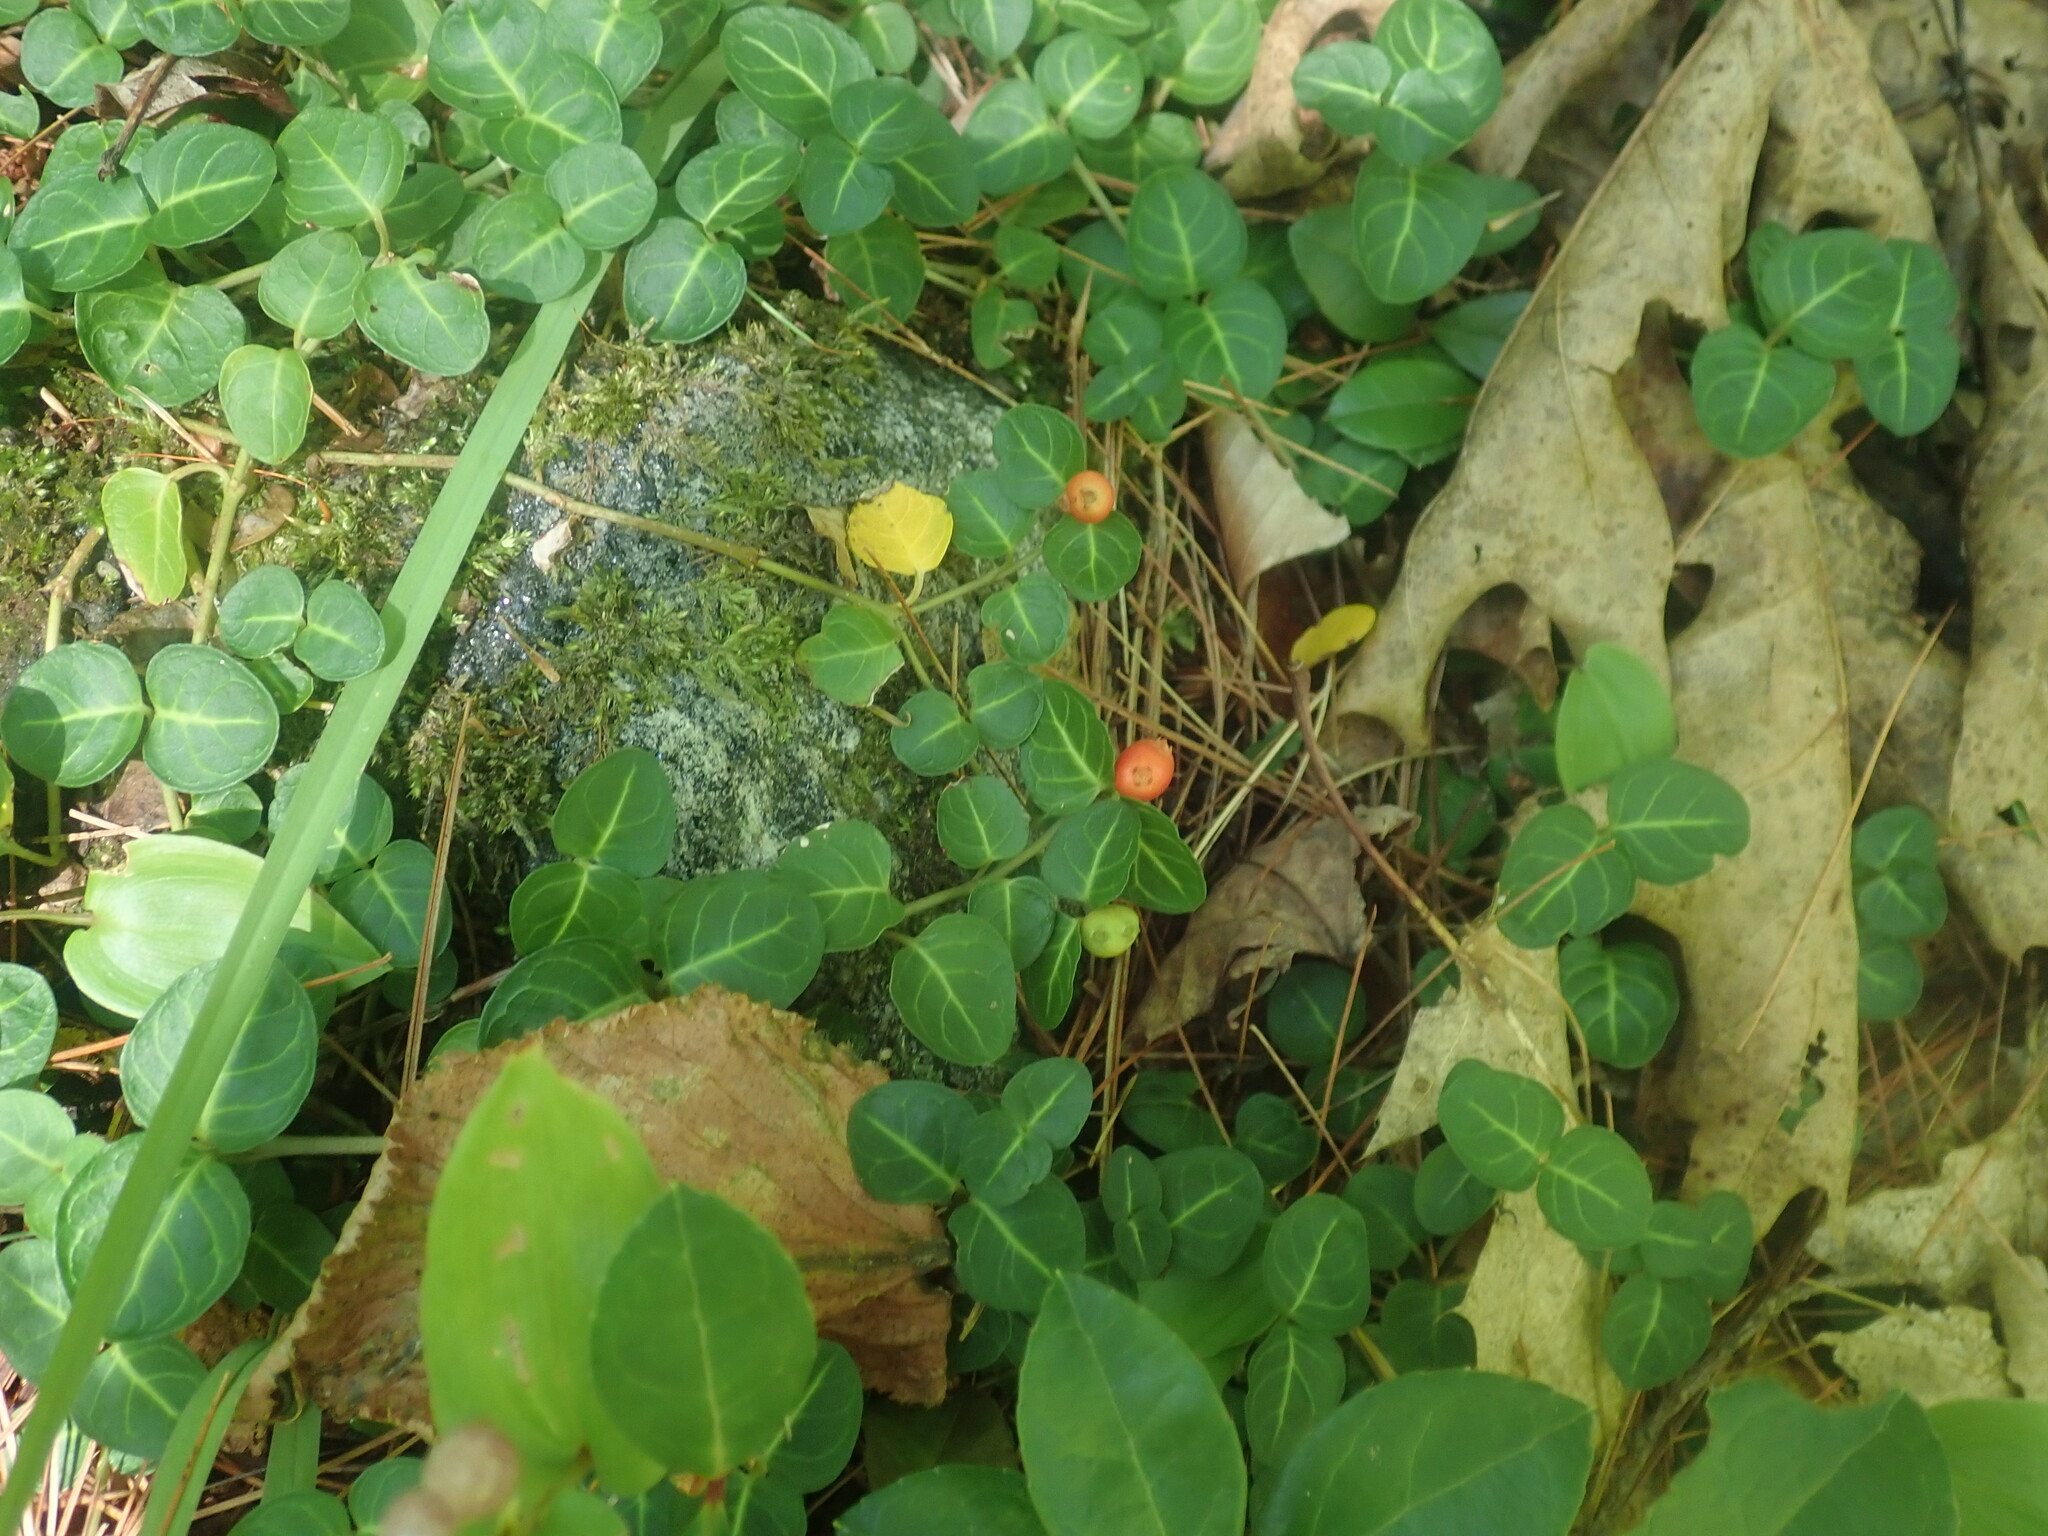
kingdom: Plantae
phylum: Tracheophyta
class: Magnoliopsida
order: Gentianales
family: Rubiaceae
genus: Mitchella
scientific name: Mitchella repens
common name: Partridge-berry
